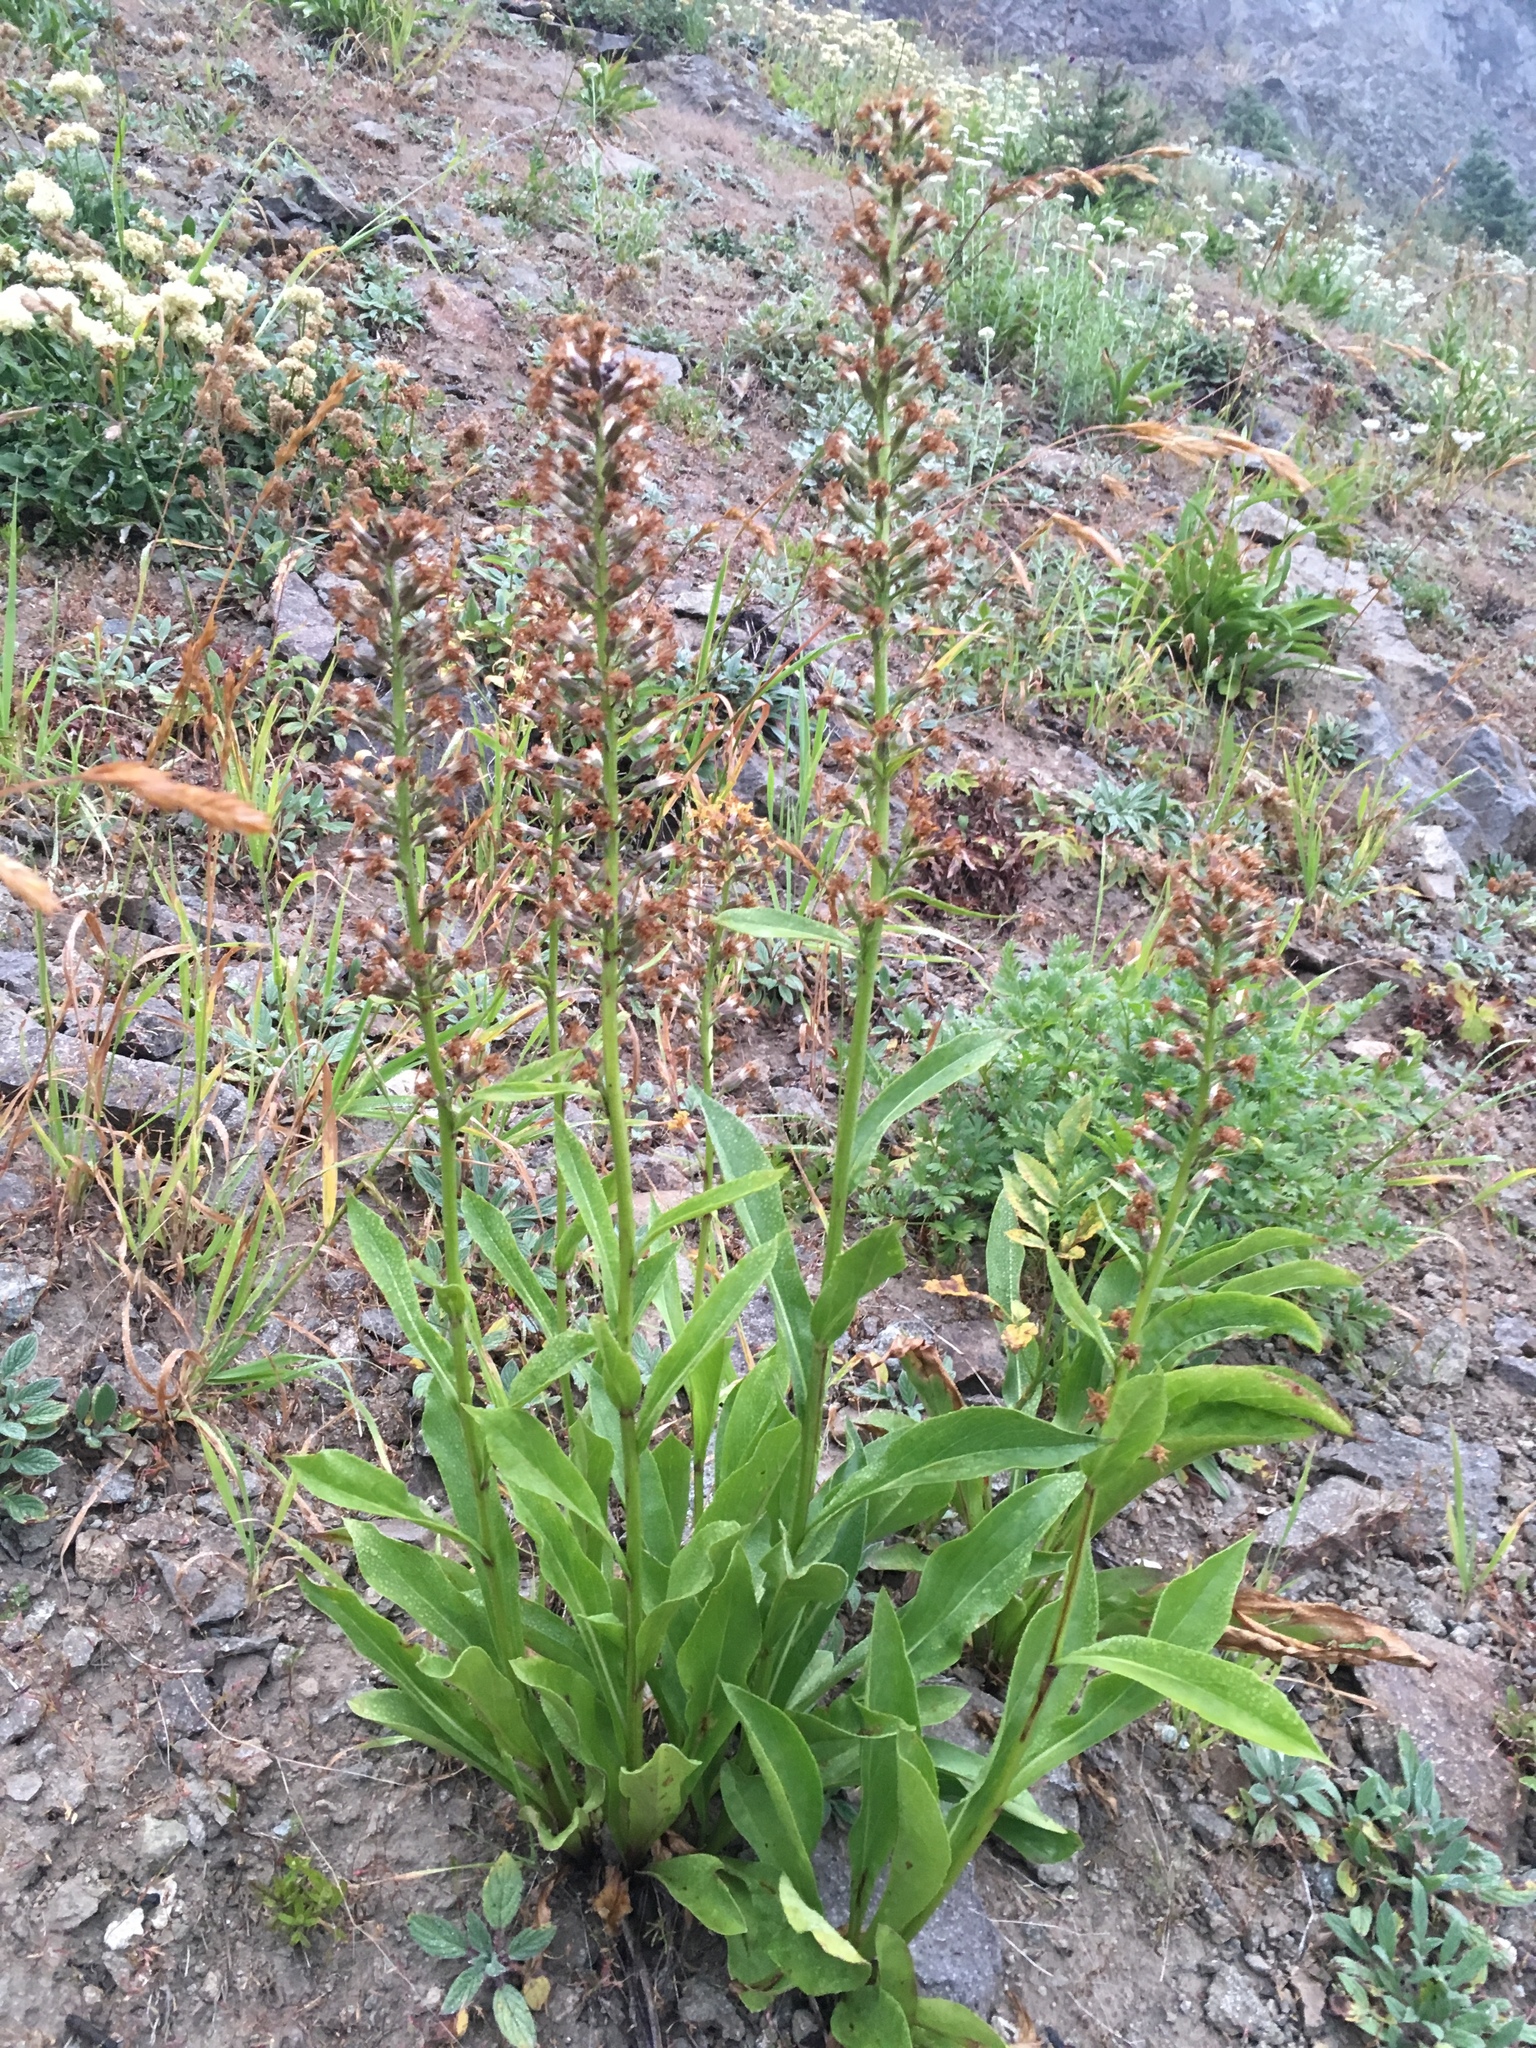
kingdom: Plantae
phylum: Tracheophyta
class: Magnoliopsida
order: Asterales
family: Asteraceae
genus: Rainiera
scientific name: Rainiera stricta
